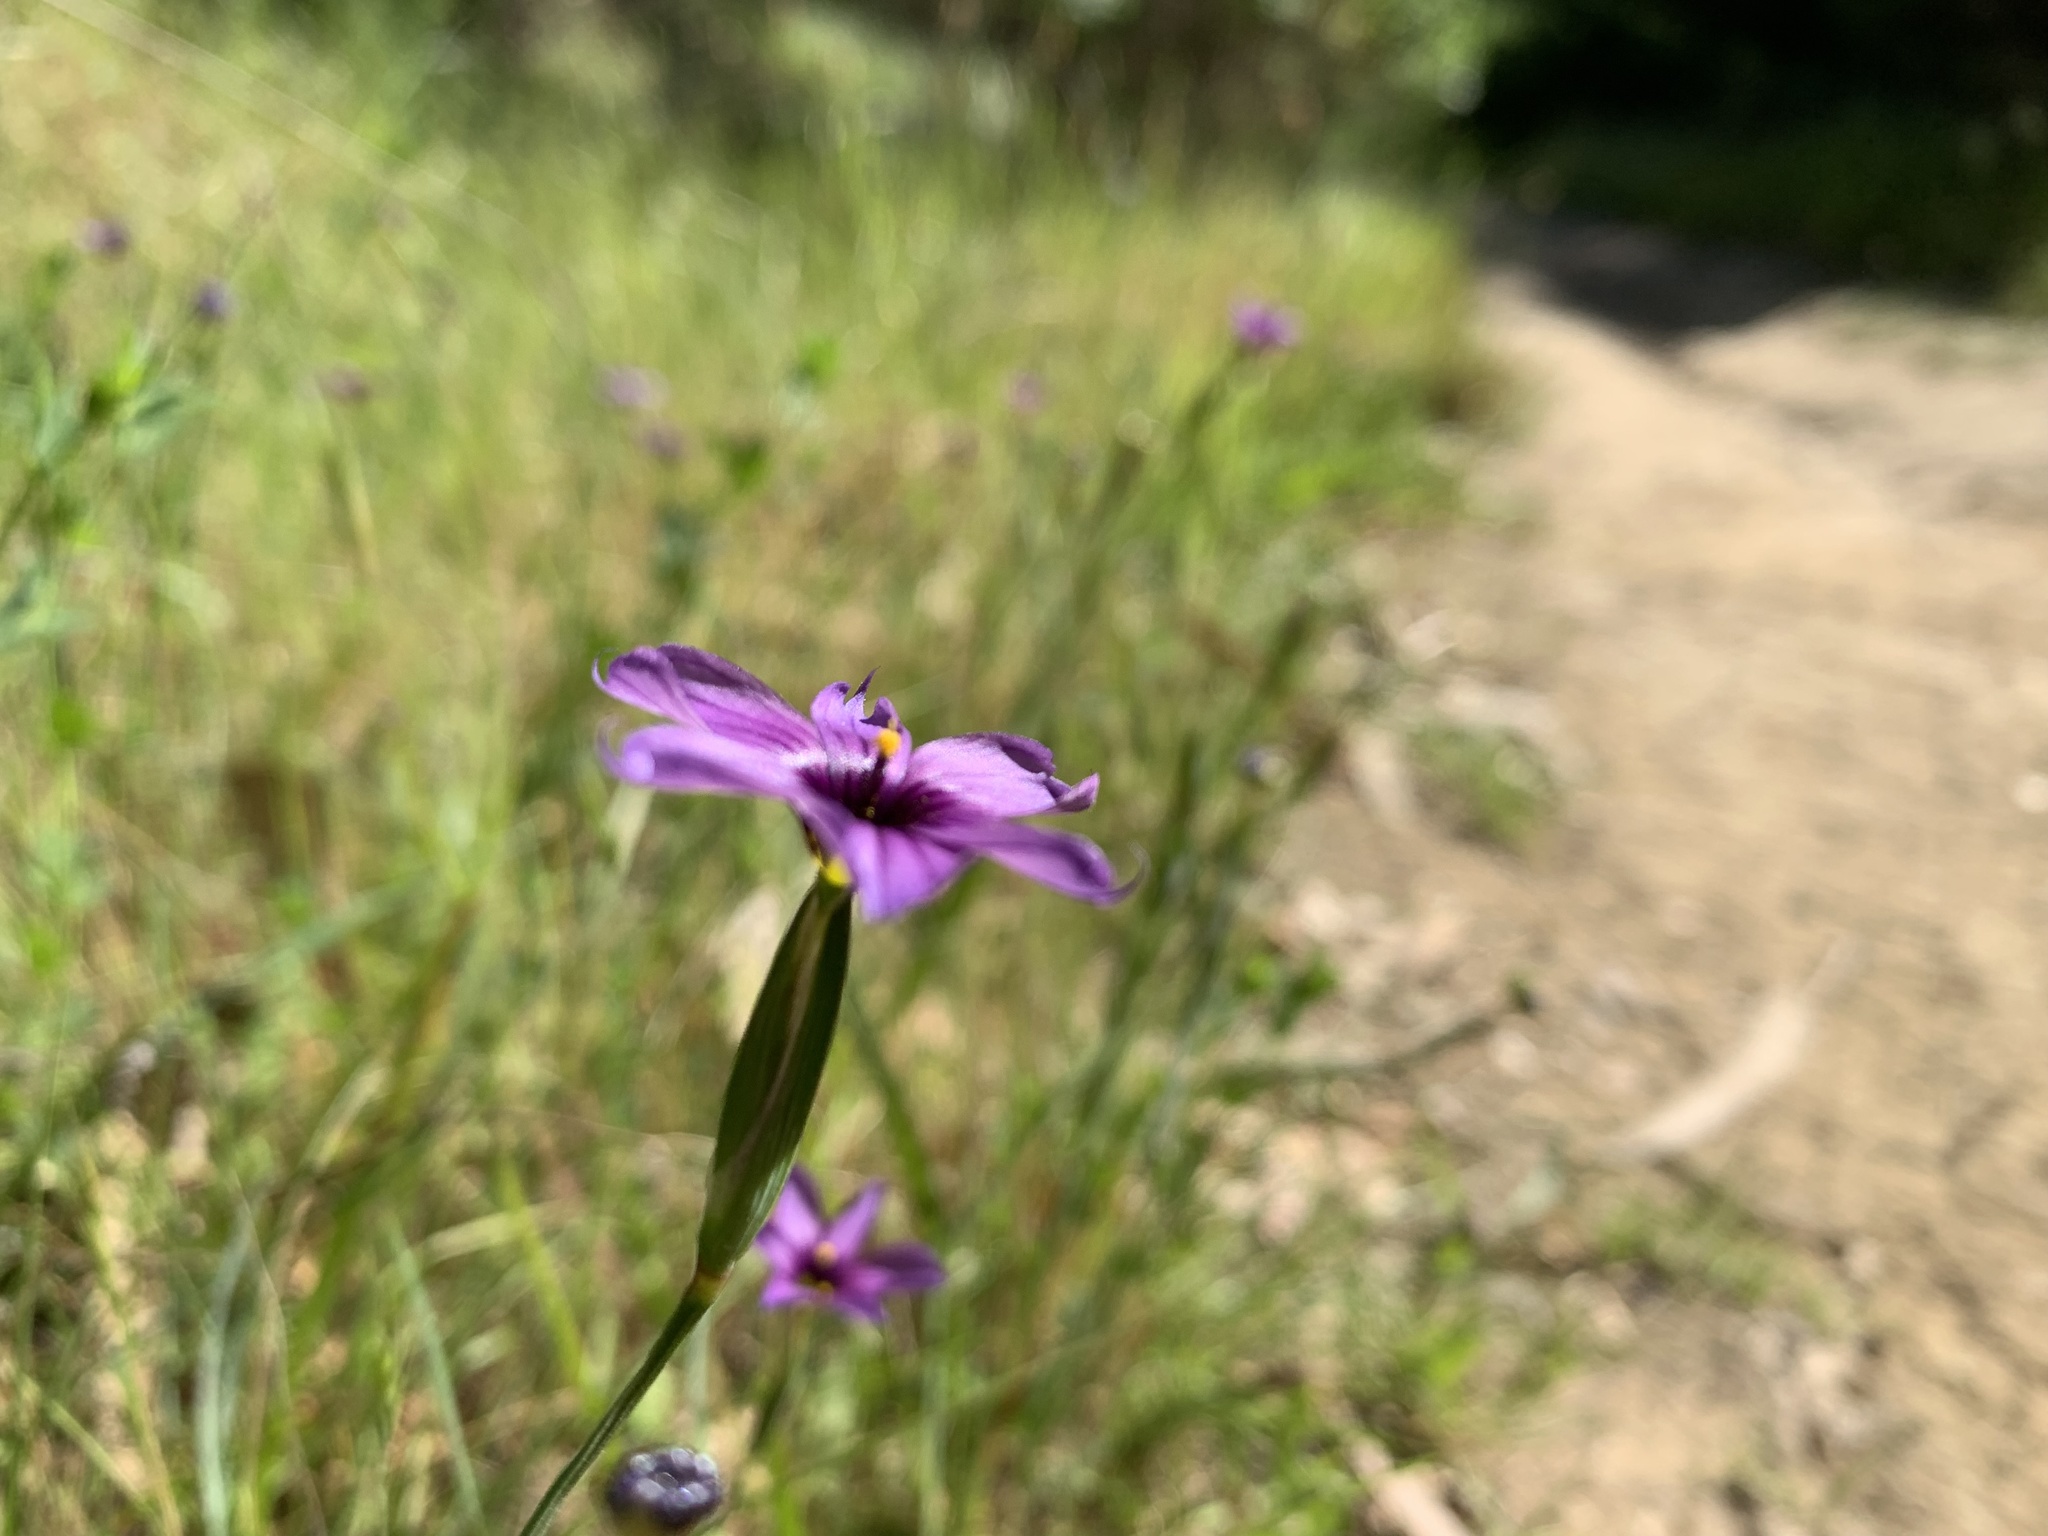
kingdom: Plantae
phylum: Tracheophyta
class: Liliopsida
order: Asparagales
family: Iridaceae
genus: Sisyrinchium
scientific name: Sisyrinchium bellum
